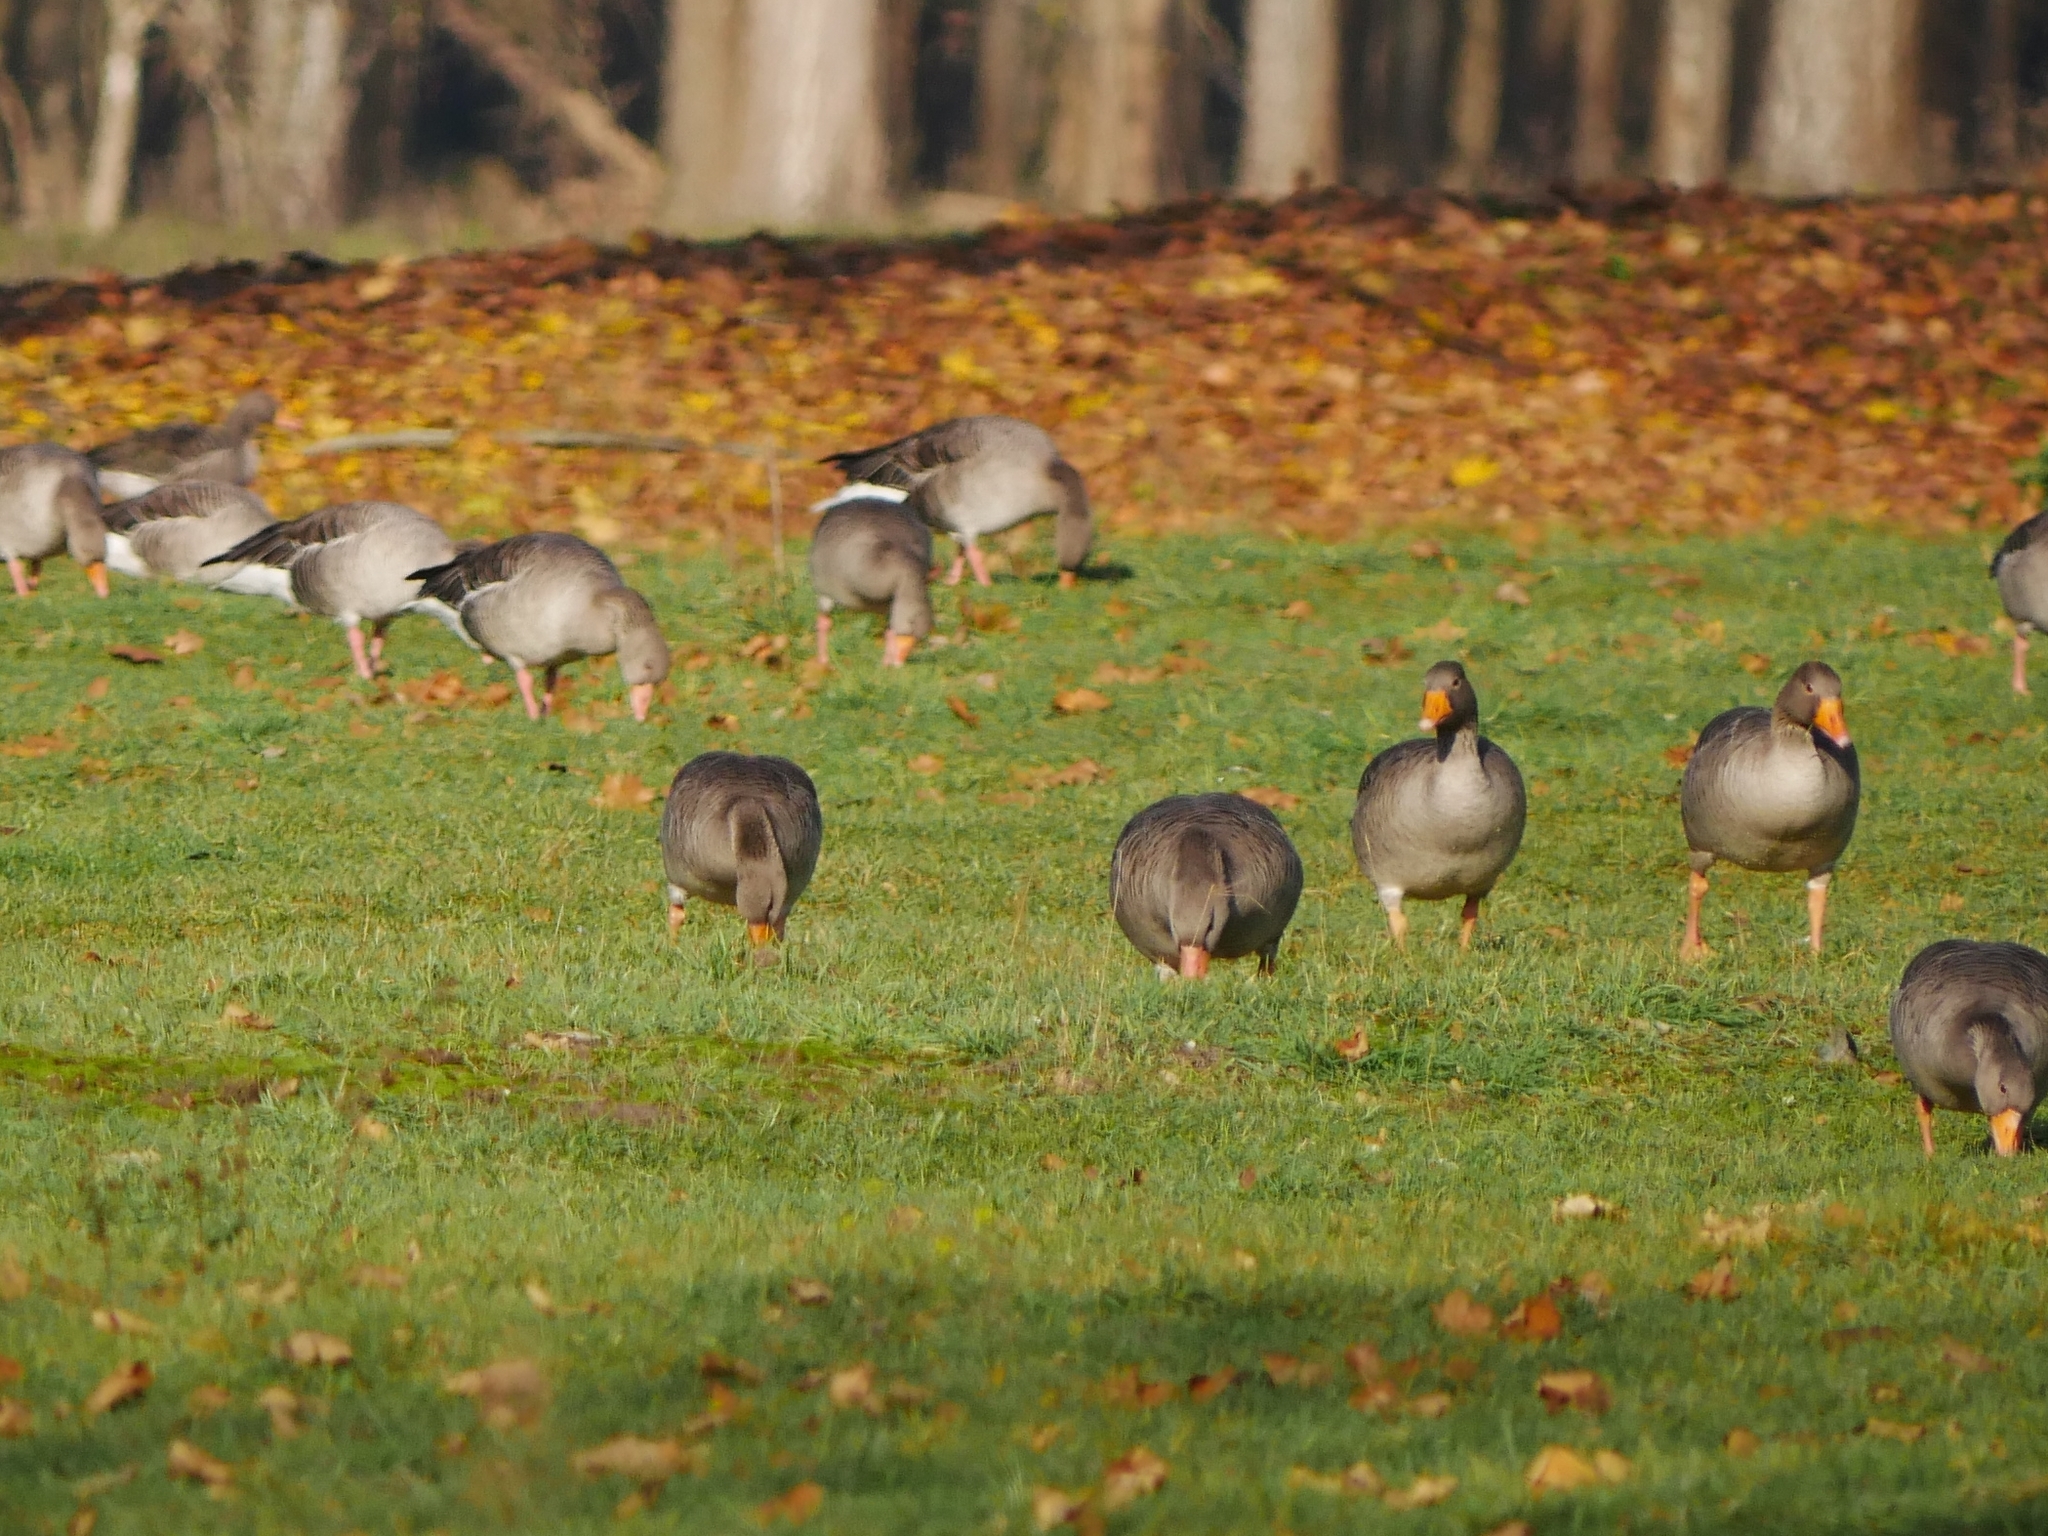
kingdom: Animalia
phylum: Chordata
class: Aves
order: Anseriformes
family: Anatidae
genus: Anser
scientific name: Anser anser
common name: Greylag goose
